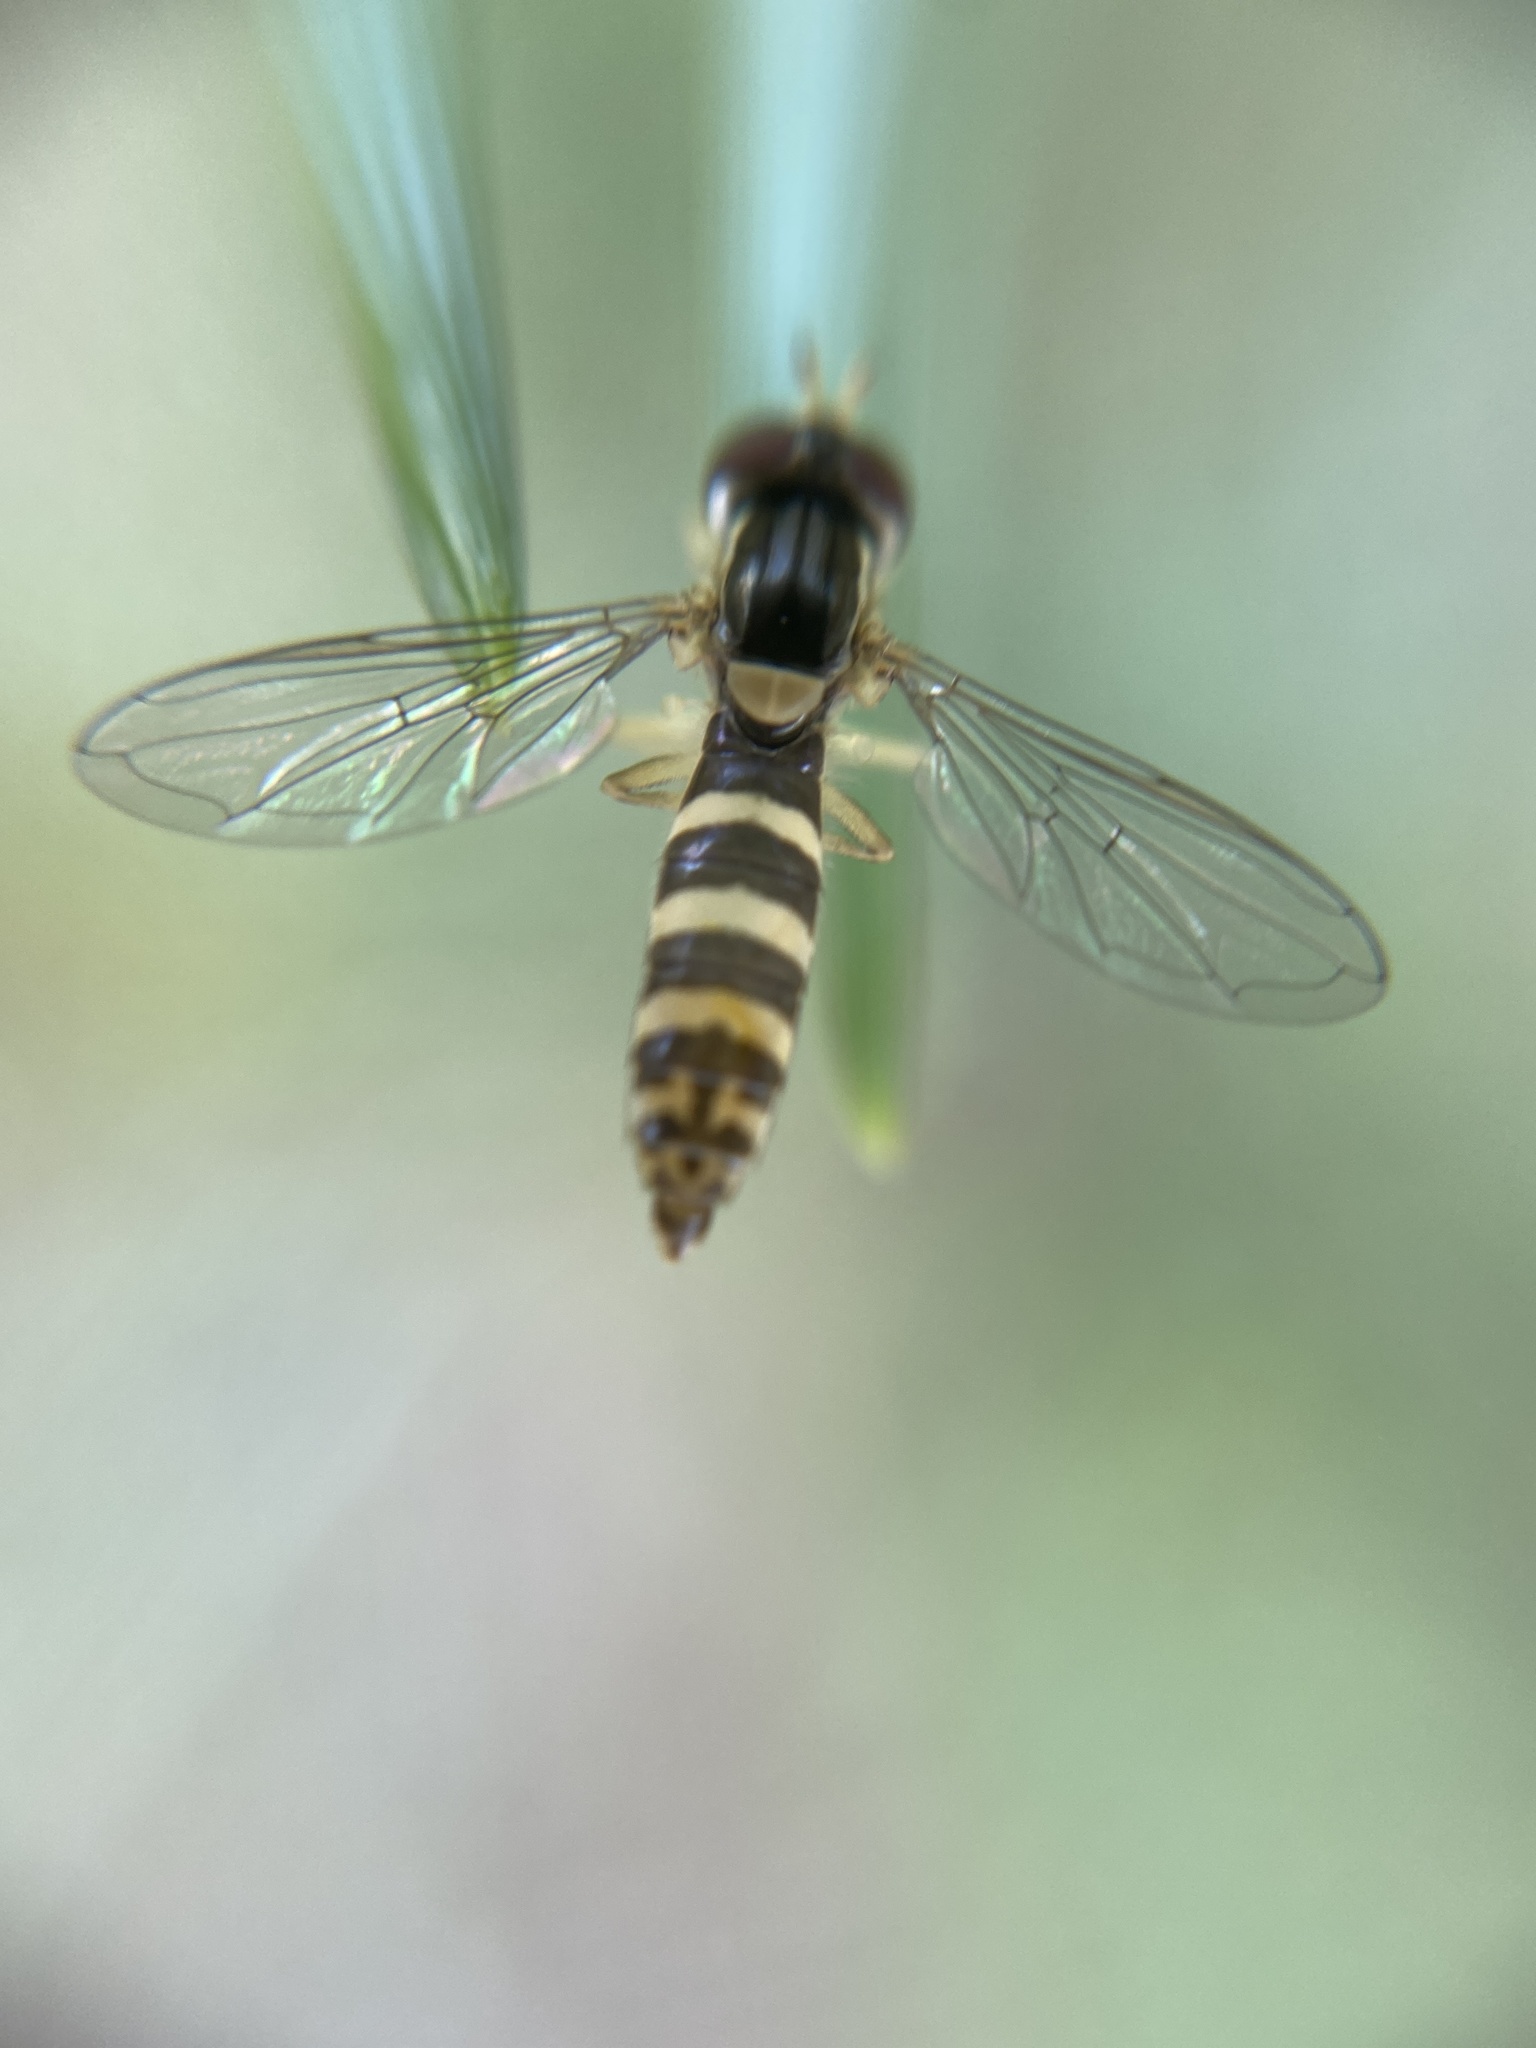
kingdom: Animalia
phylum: Arthropoda
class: Insecta
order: Diptera
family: Syrphidae
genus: Sphaerophoria
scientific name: Sphaerophoria
